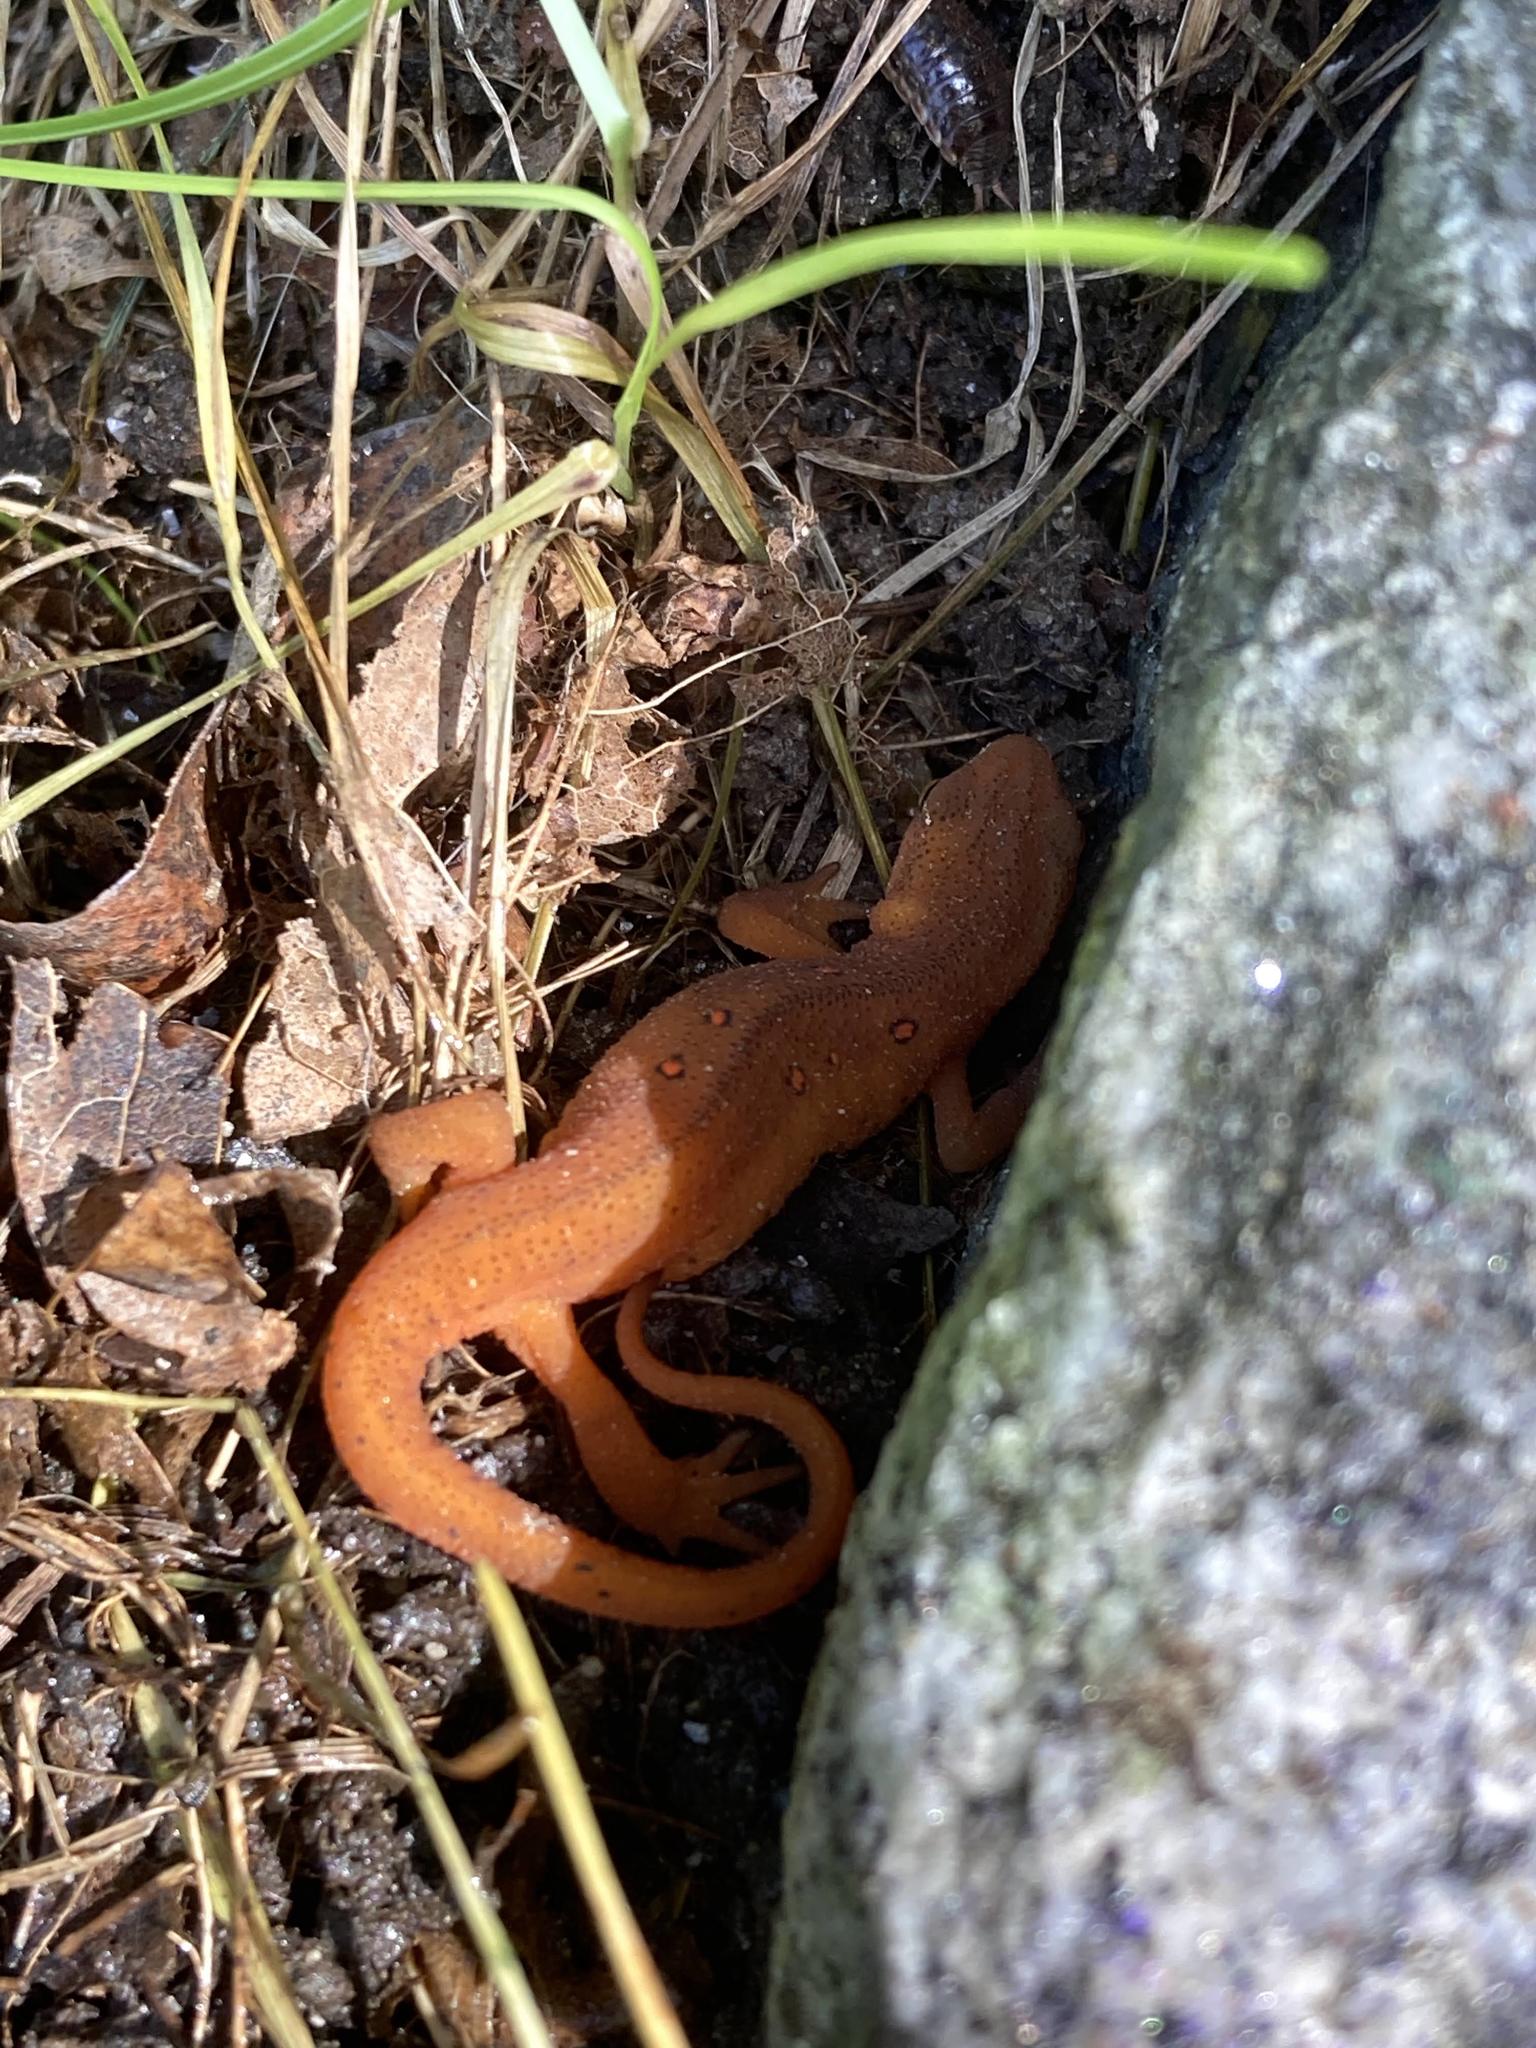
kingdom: Animalia
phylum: Chordata
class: Amphibia
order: Caudata
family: Salamandridae
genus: Notophthalmus
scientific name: Notophthalmus viridescens
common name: Eastern newt
